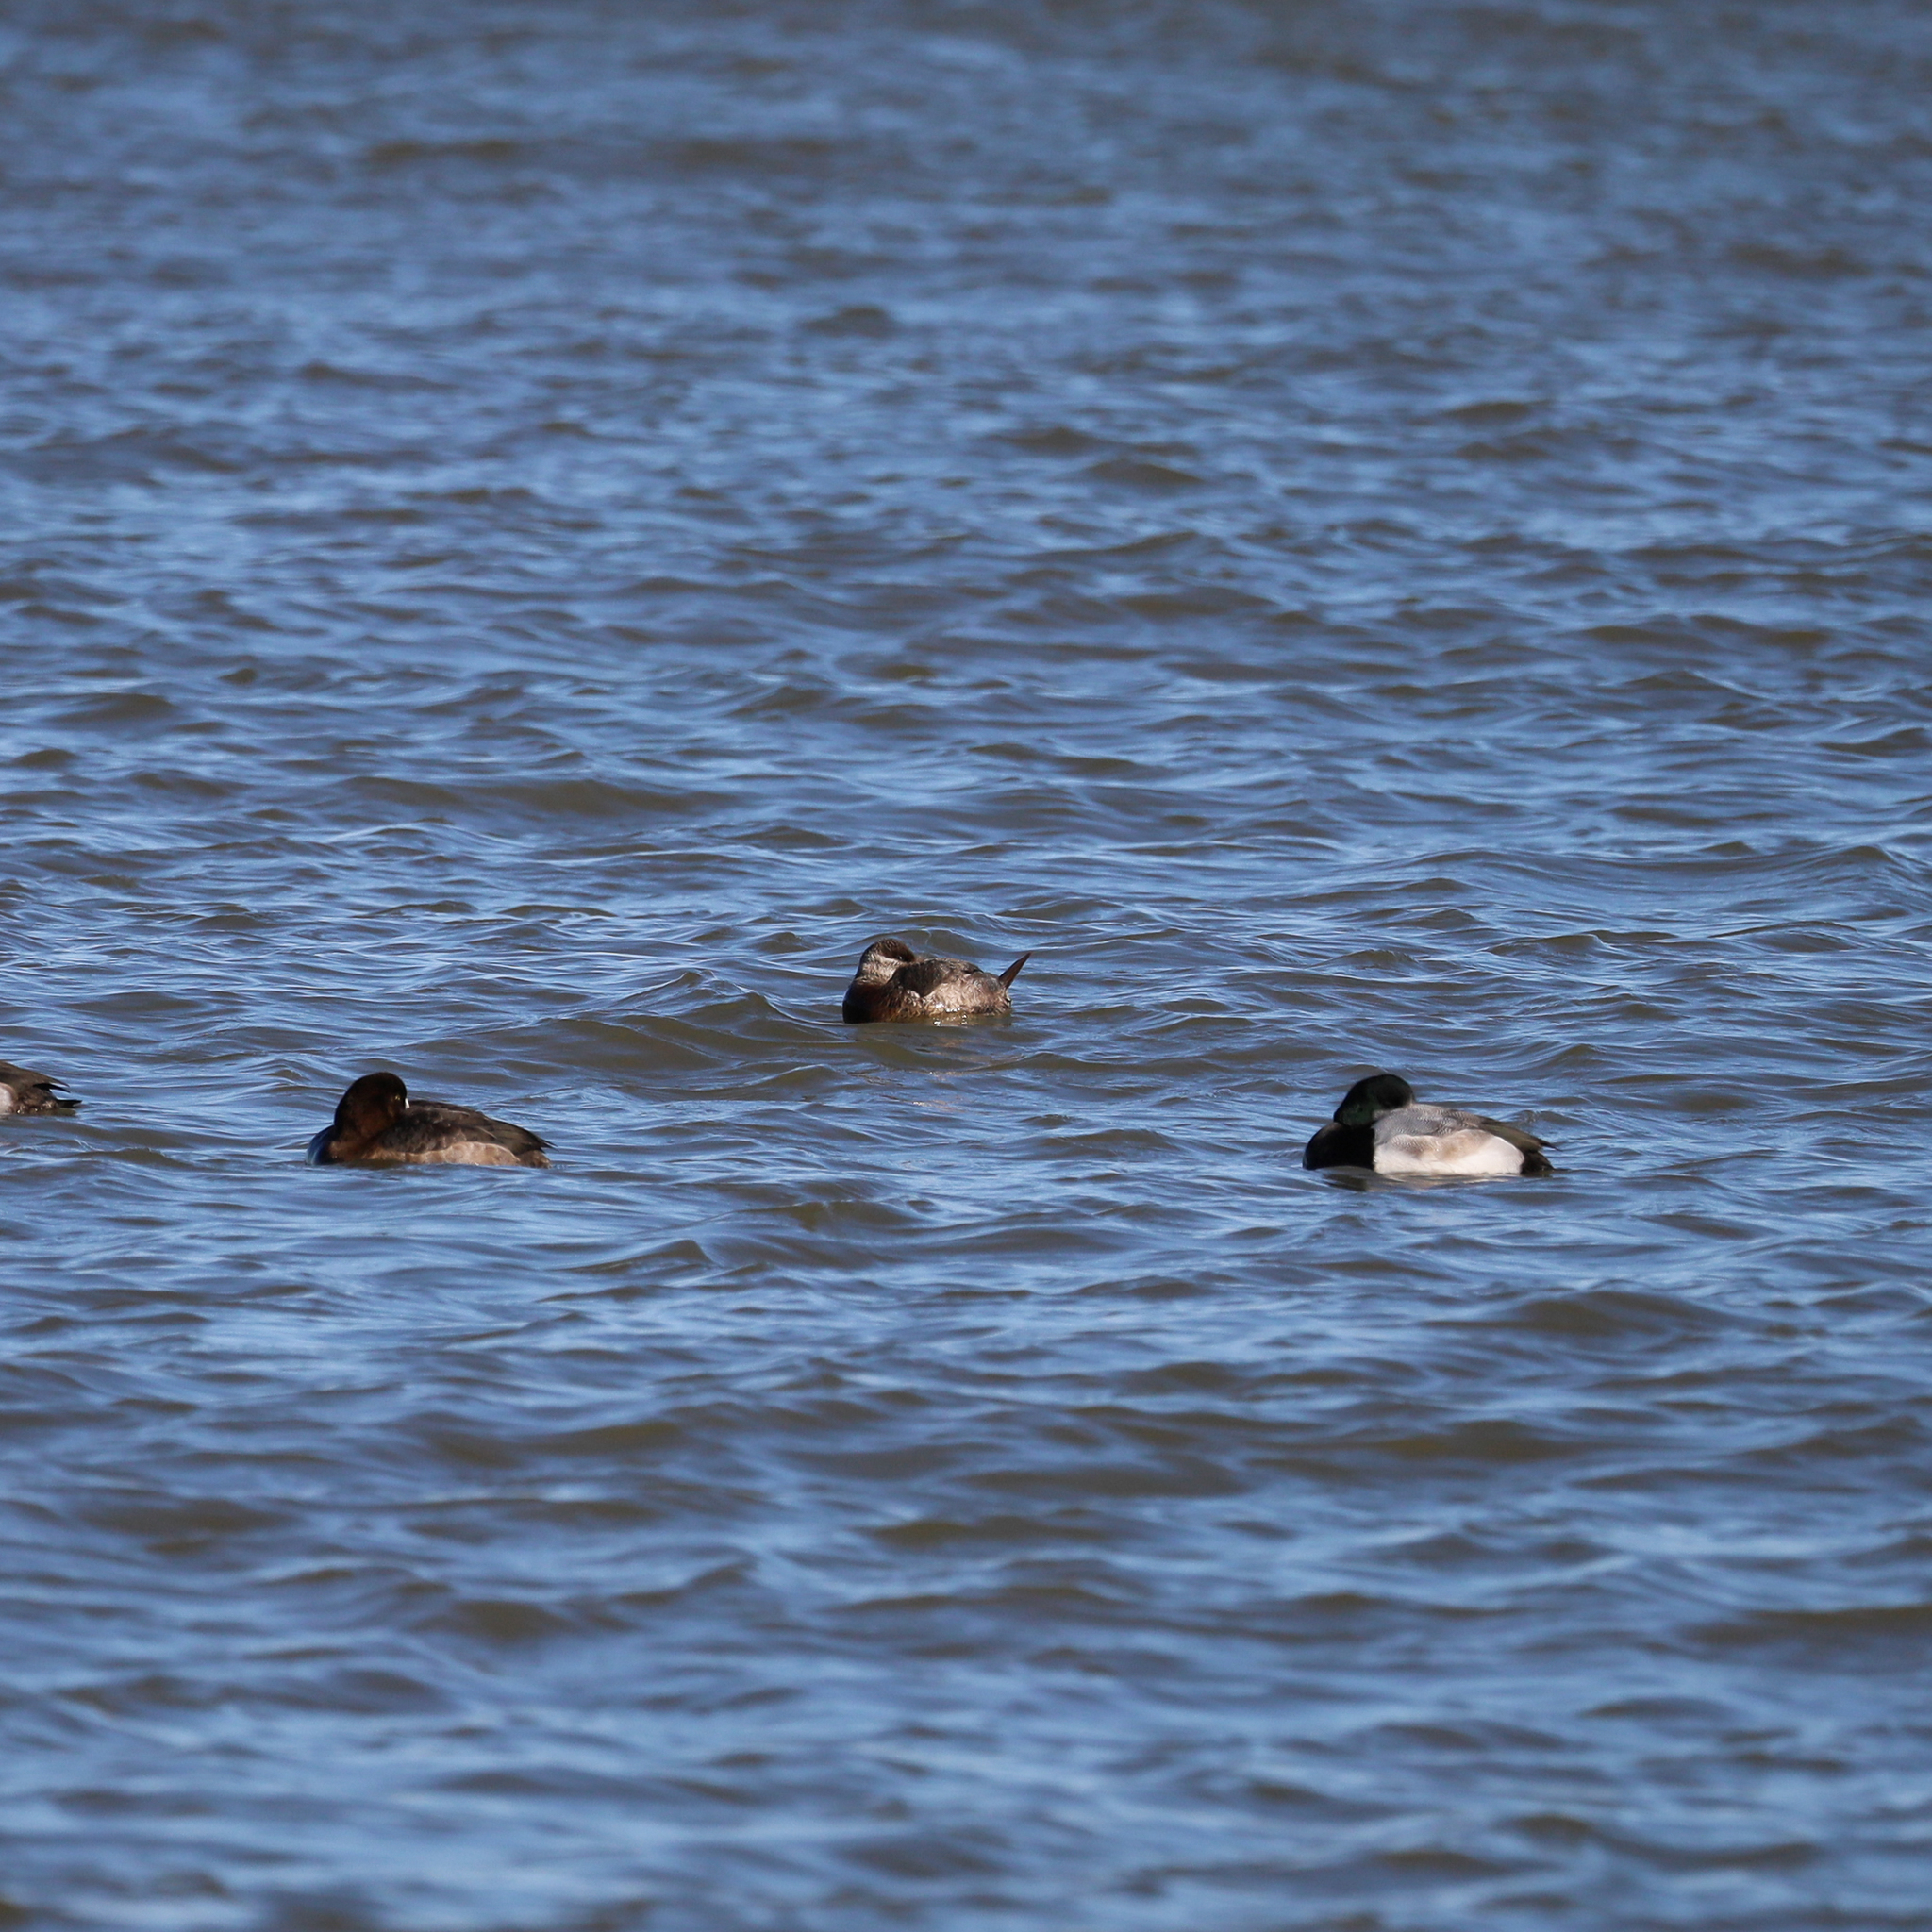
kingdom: Animalia
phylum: Chordata
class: Aves
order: Anseriformes
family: Anatidae
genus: Oxyura
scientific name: Oxyura jamaicensis
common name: Ruddy duck
